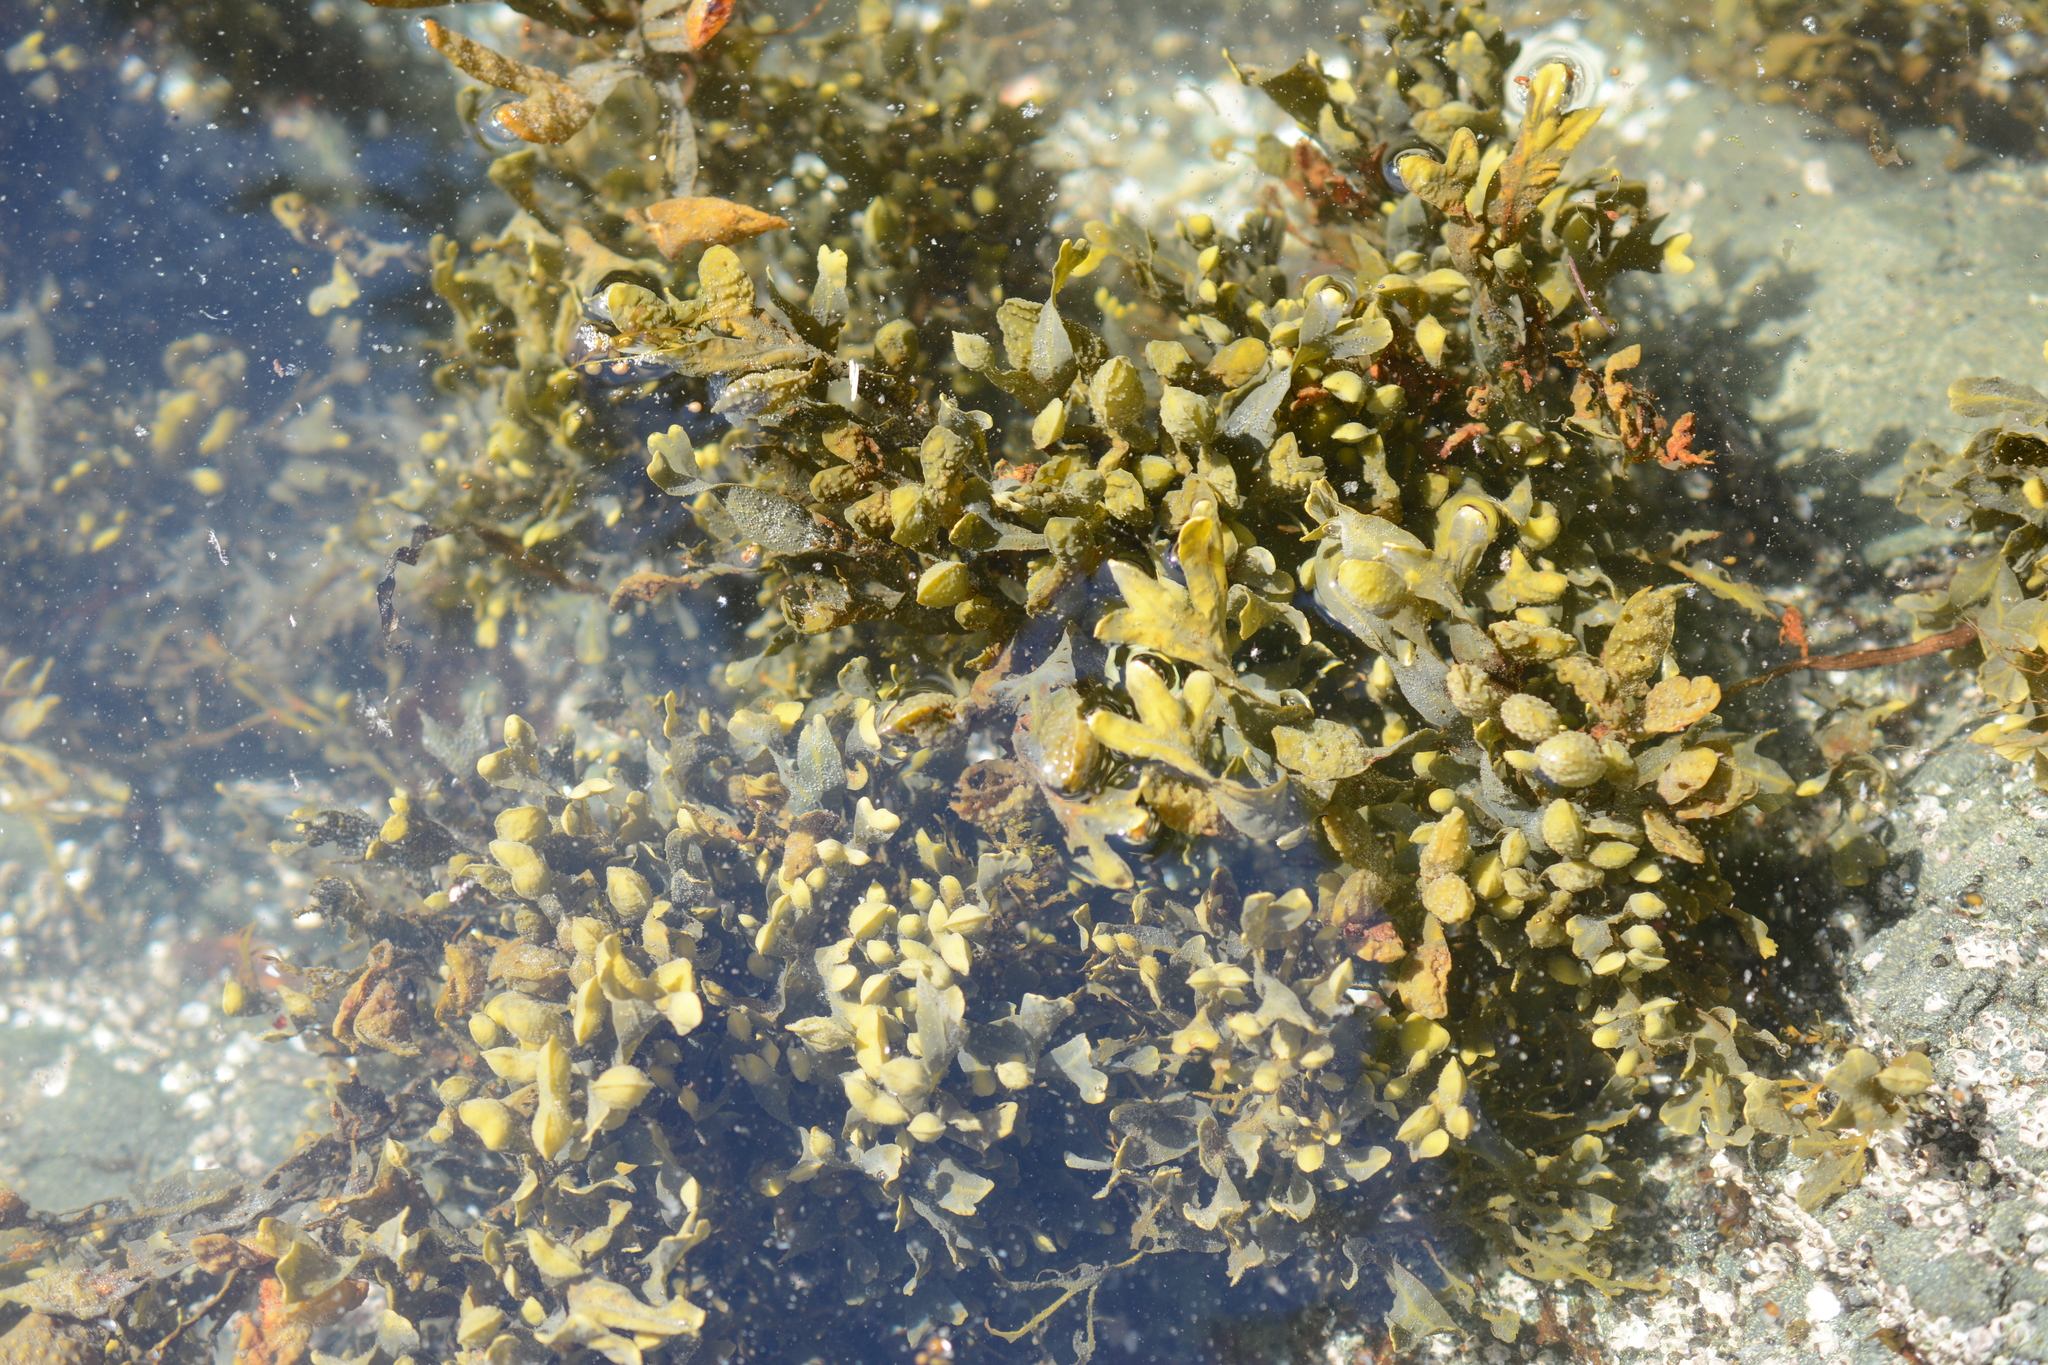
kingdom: Chromista
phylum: Ochrophyta
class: Phaeophyceae
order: Fucales
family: Fucaceae
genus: Fucus
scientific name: Fucus distichus
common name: Rockweed
